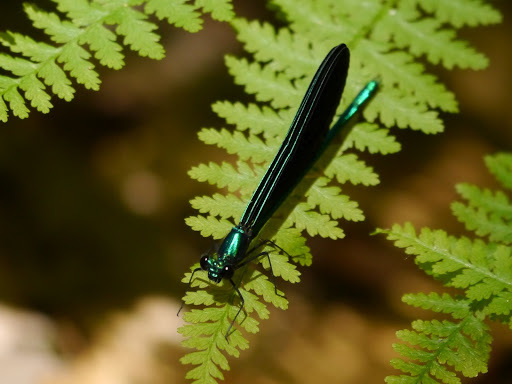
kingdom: Animalia
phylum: Arthropoda
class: Insecta
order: Odonata
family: Calopterygidae
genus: Calopteryx
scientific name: Calopteryx maculata
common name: Ebony jewelwing
